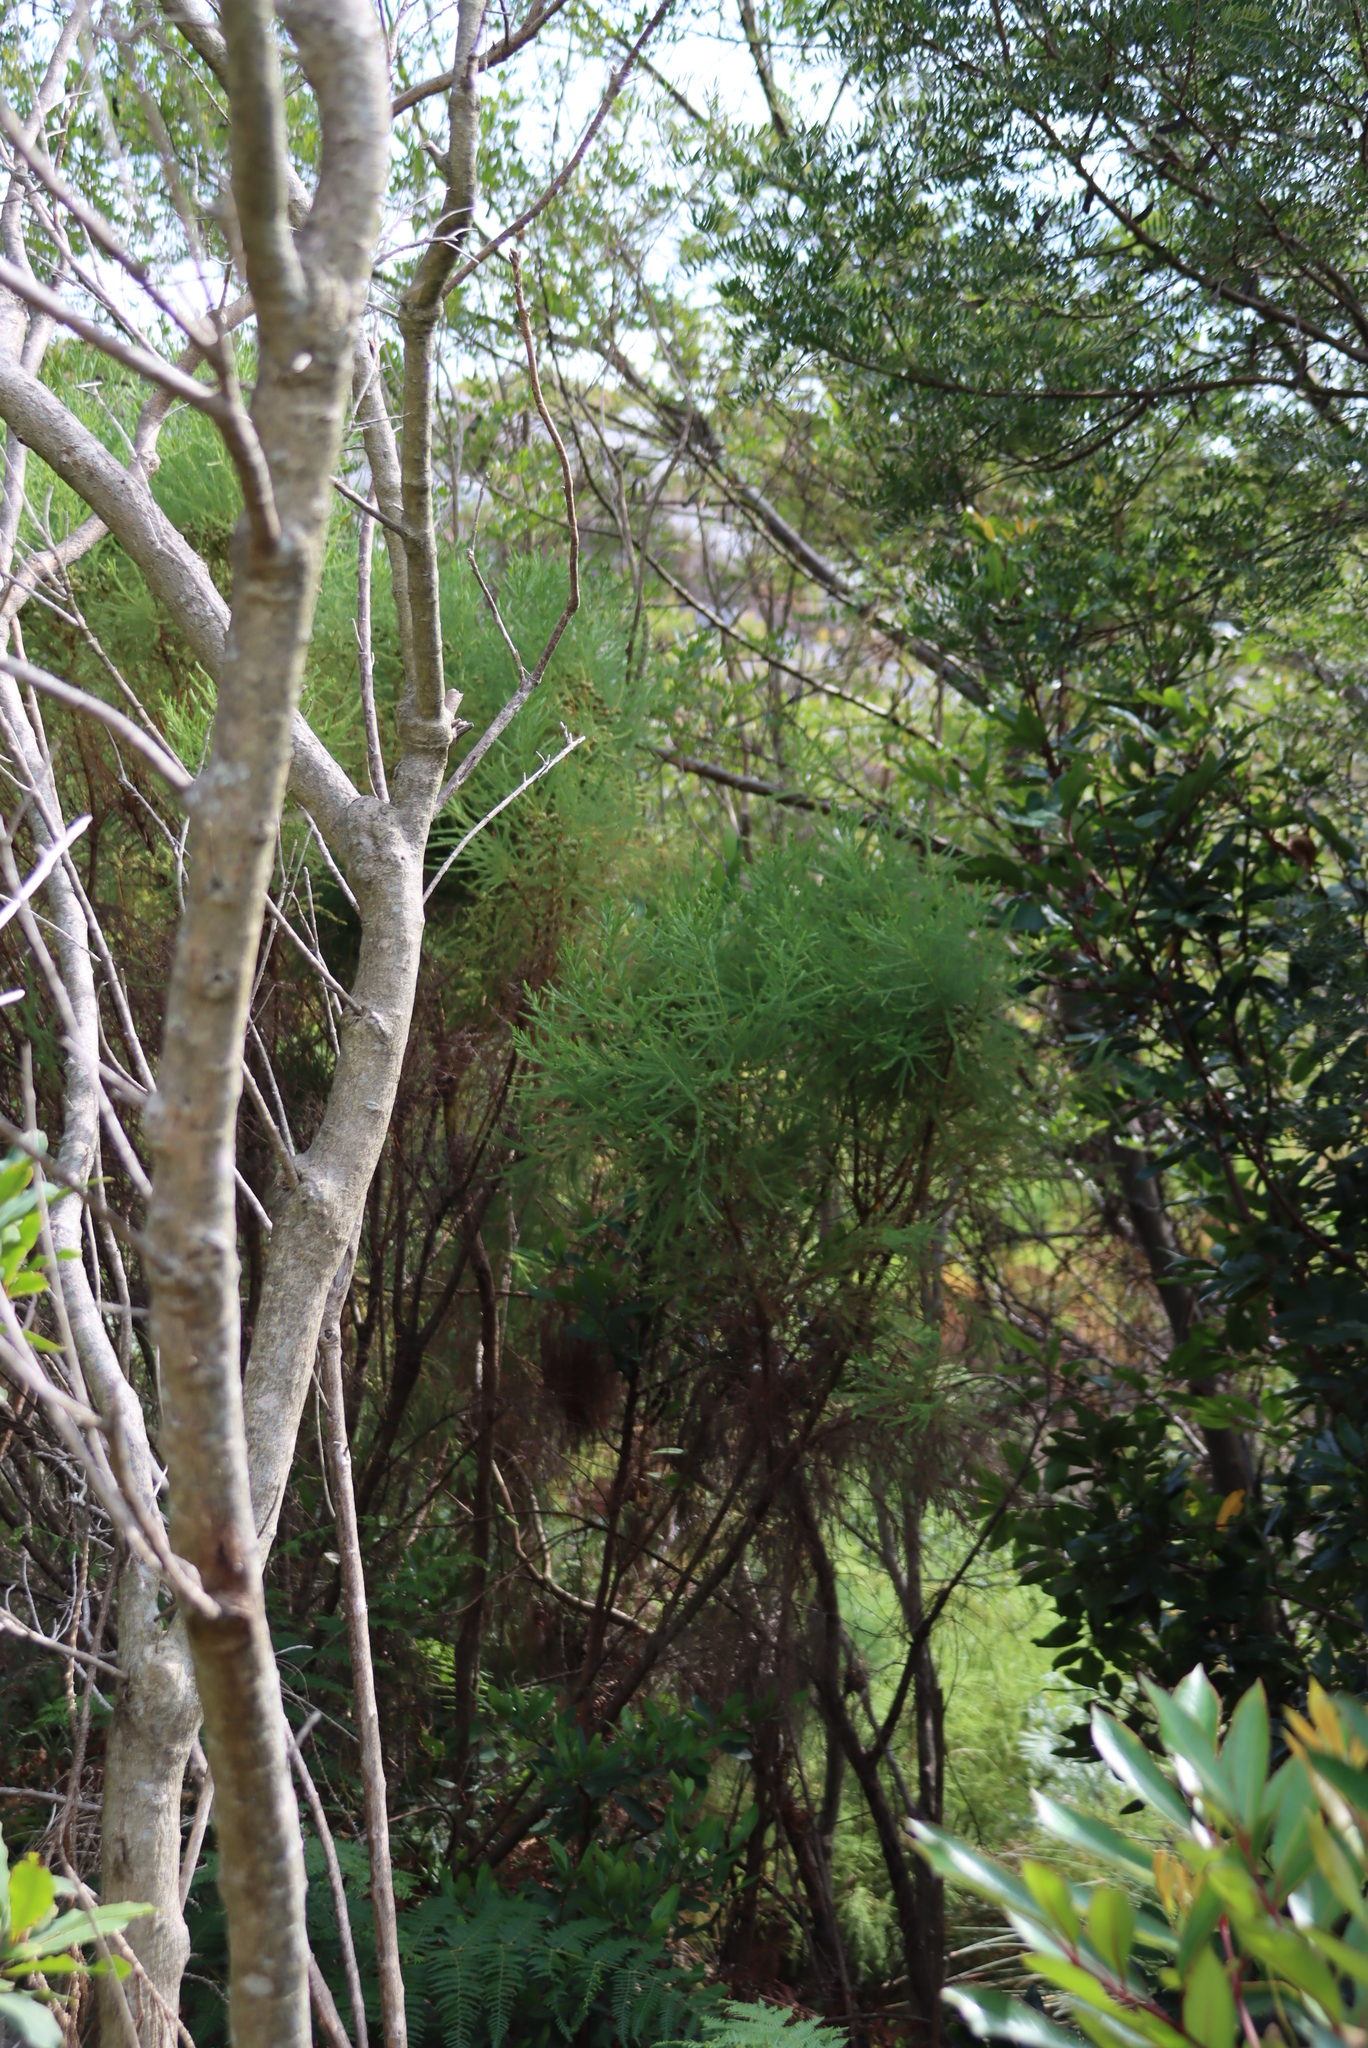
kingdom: Plantae
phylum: Tracheophyta
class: Magnoliopsida
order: Bruniales
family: Bruniaceae
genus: Berzelia
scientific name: Berzelia lanuginosa
